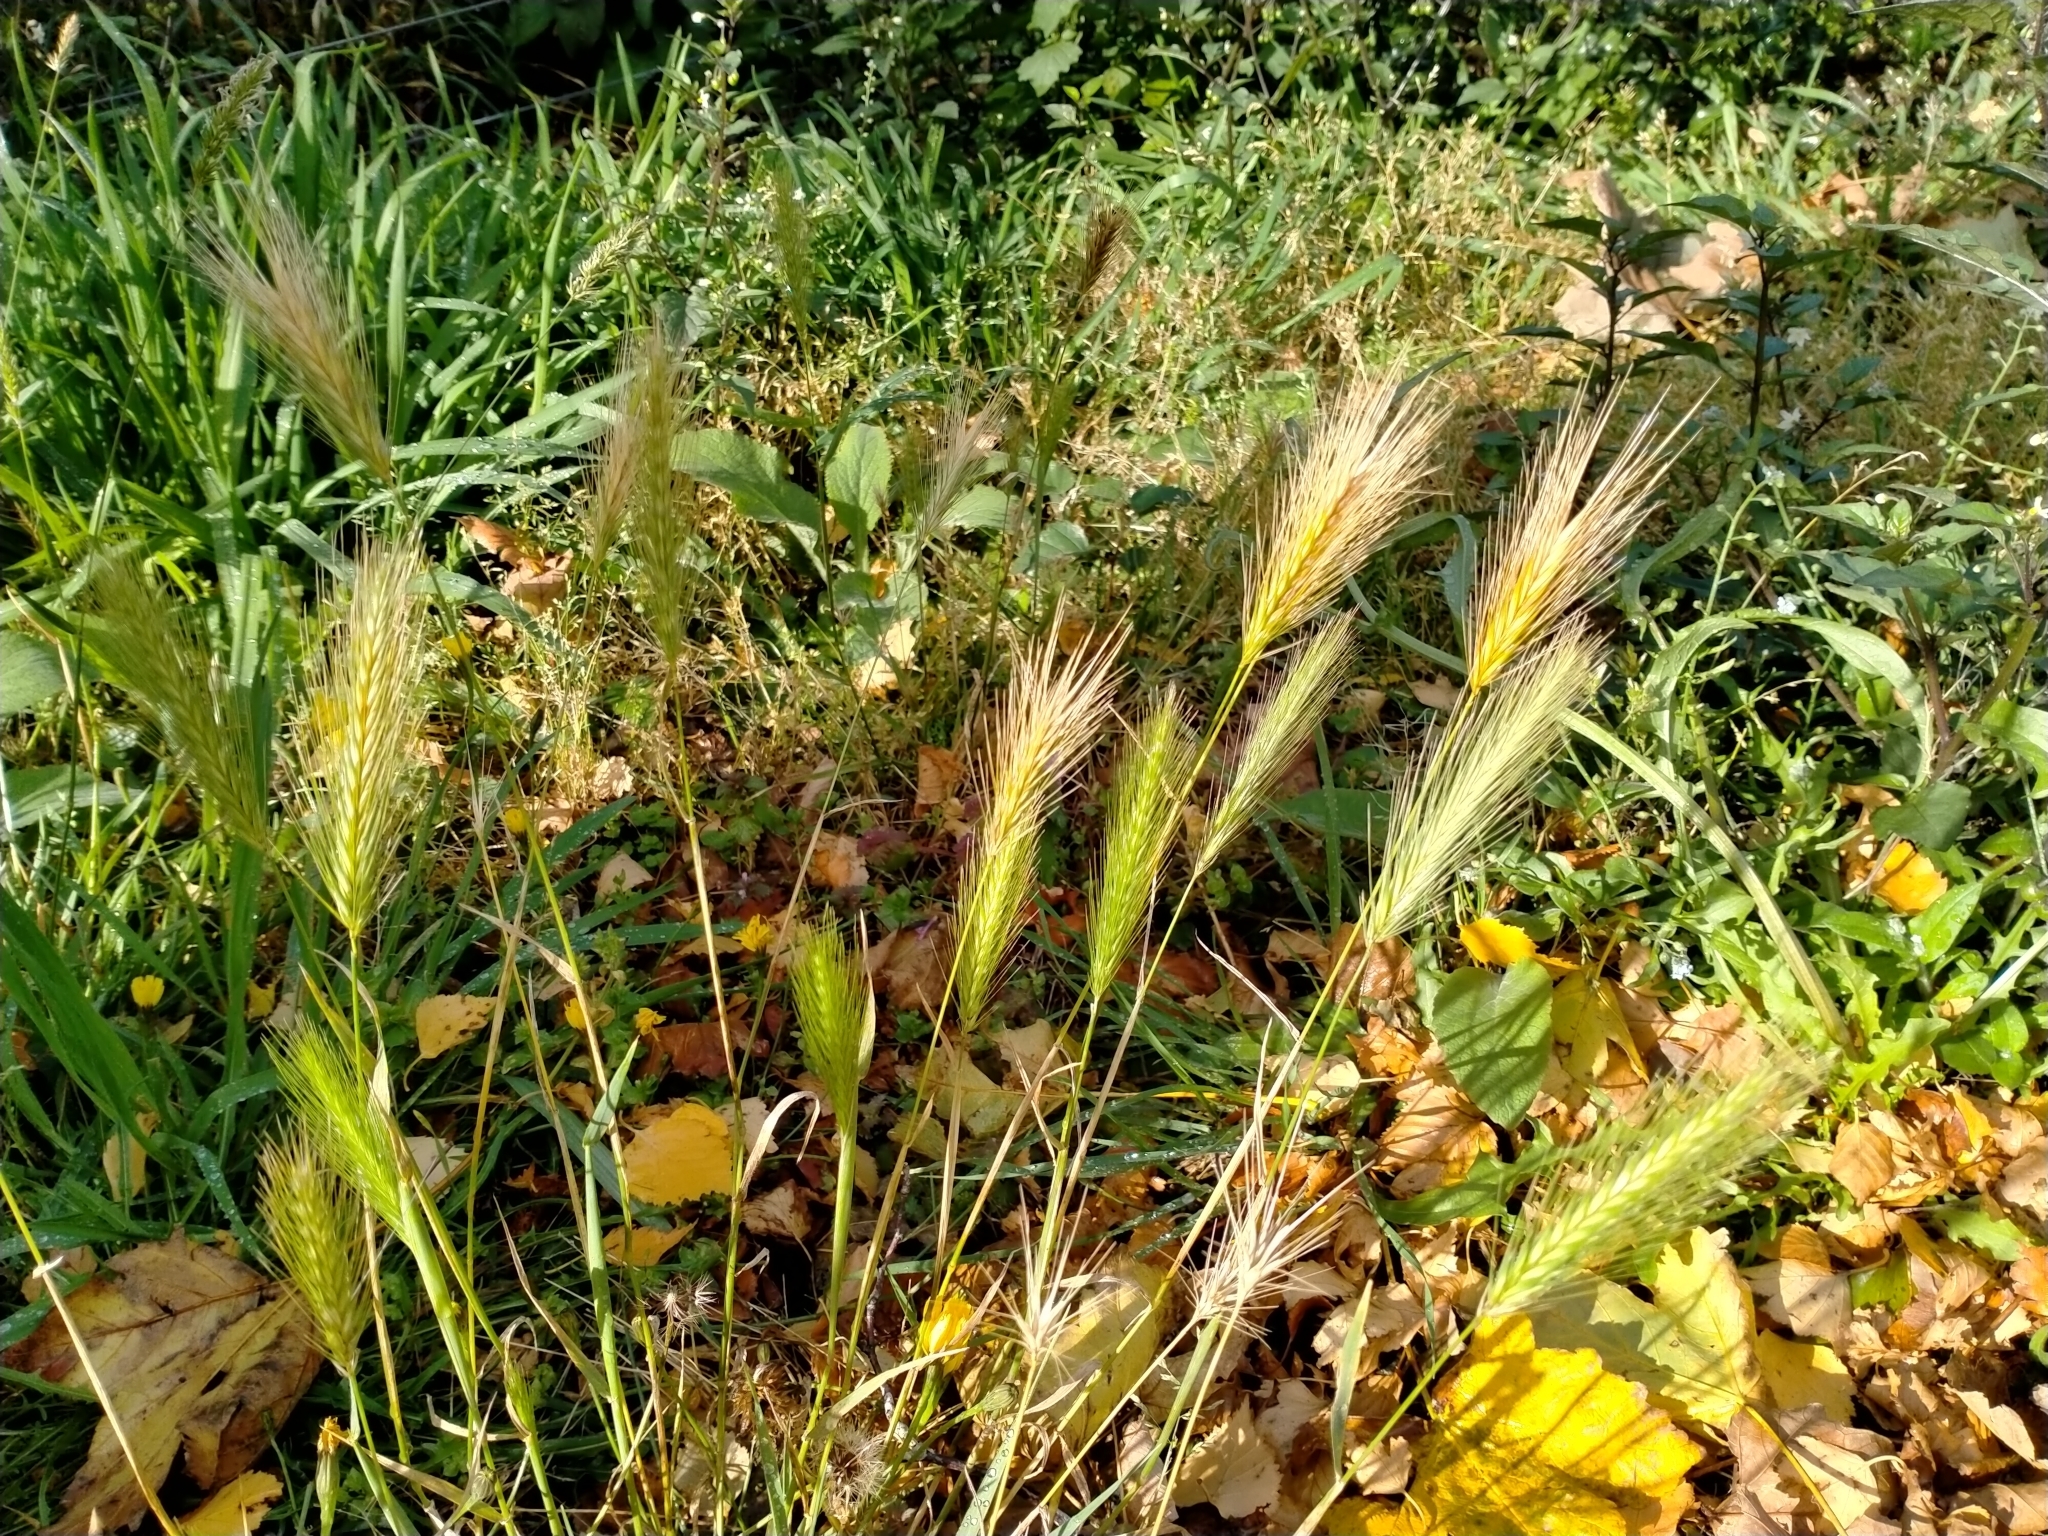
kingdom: Plantae
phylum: Tracheophyta
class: Liliopsida
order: Poales
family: Poaceae
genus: Hordeum
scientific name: Hordeum murinum
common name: Wall barley
